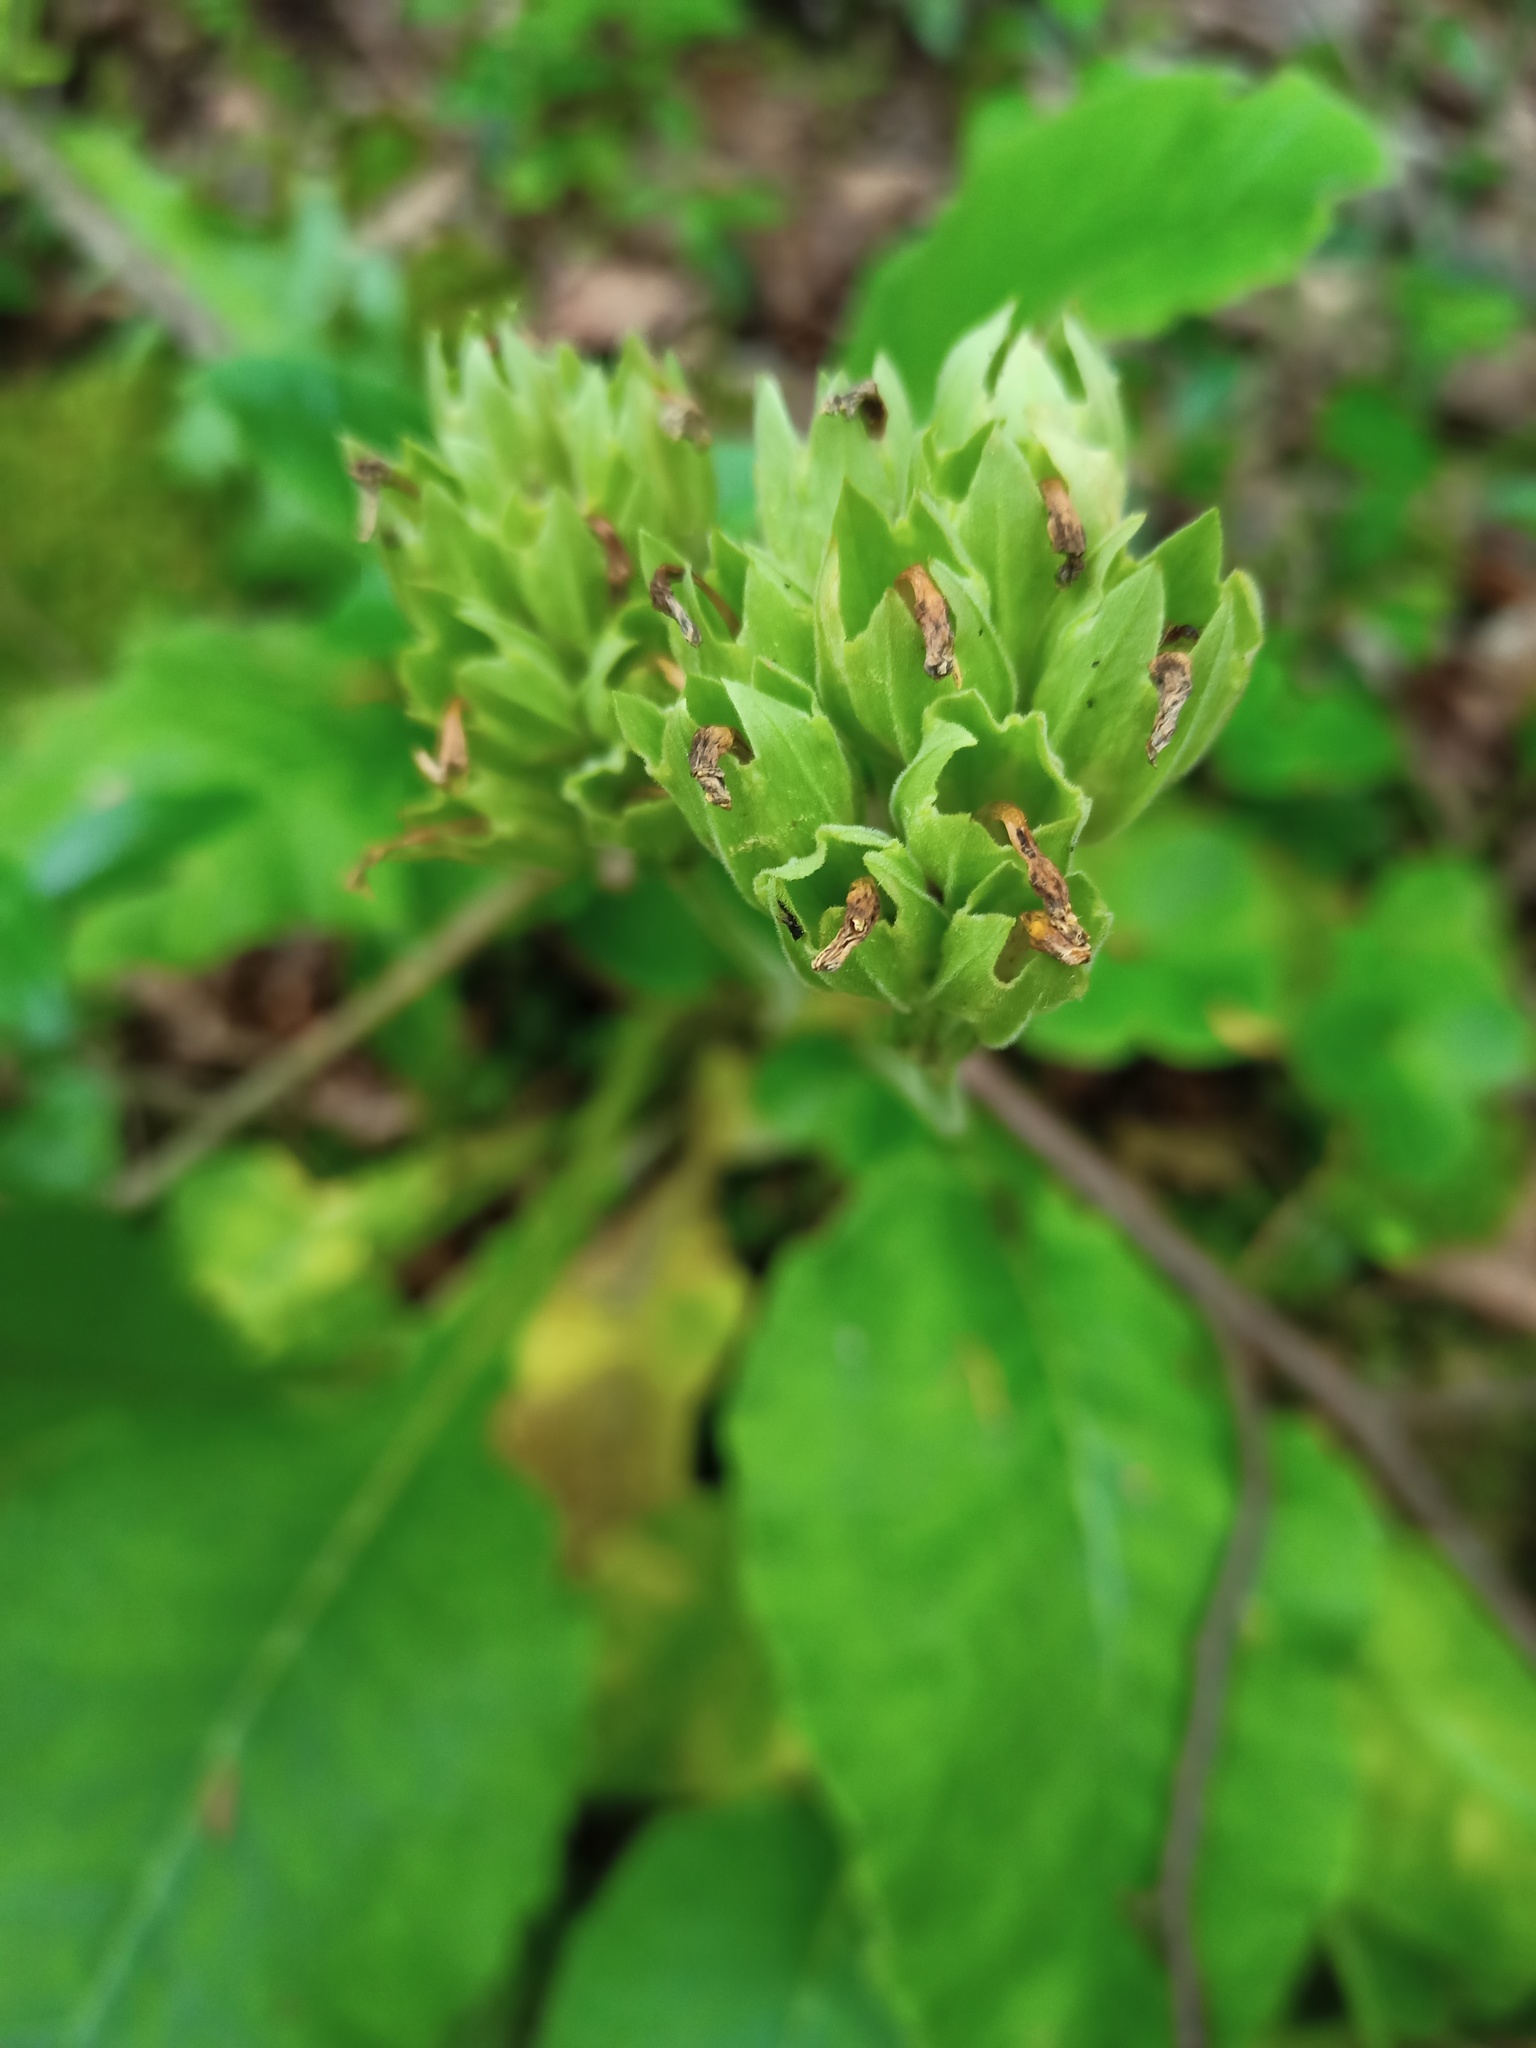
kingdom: Plantae
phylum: Tracheophyta
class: Magnoliopsida
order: Ericales
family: Primulaceae
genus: Primula
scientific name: Primula veris
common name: Cowslip
